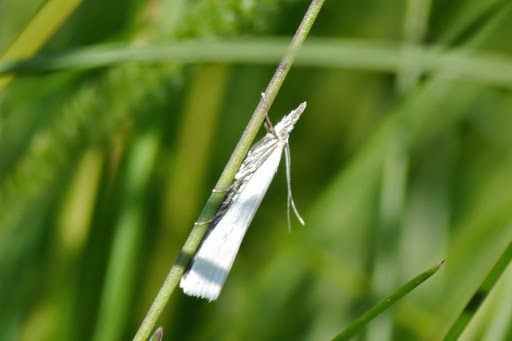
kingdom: Animalia
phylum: Arthropoda
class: Insecta
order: Lepidoptera
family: Crambidae
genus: Crambus
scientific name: Crambus perlellus
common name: Yellow satin veneer
